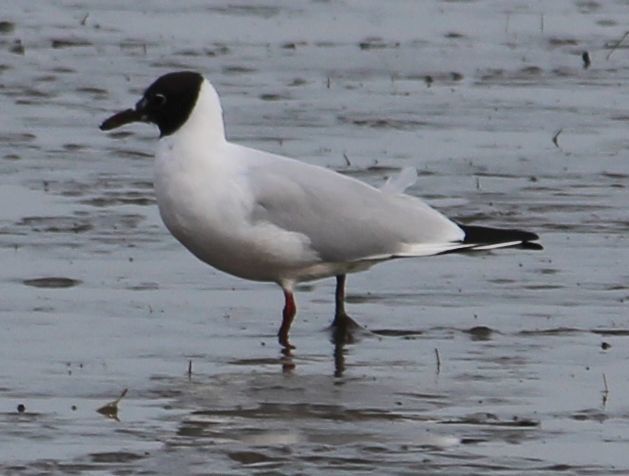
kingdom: Animalia
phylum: Chordata
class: Aves
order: Charadriiformes
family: Laridae
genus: Chroicocephalus
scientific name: Chroicocephalus ridibundus
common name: Black-headed gull
